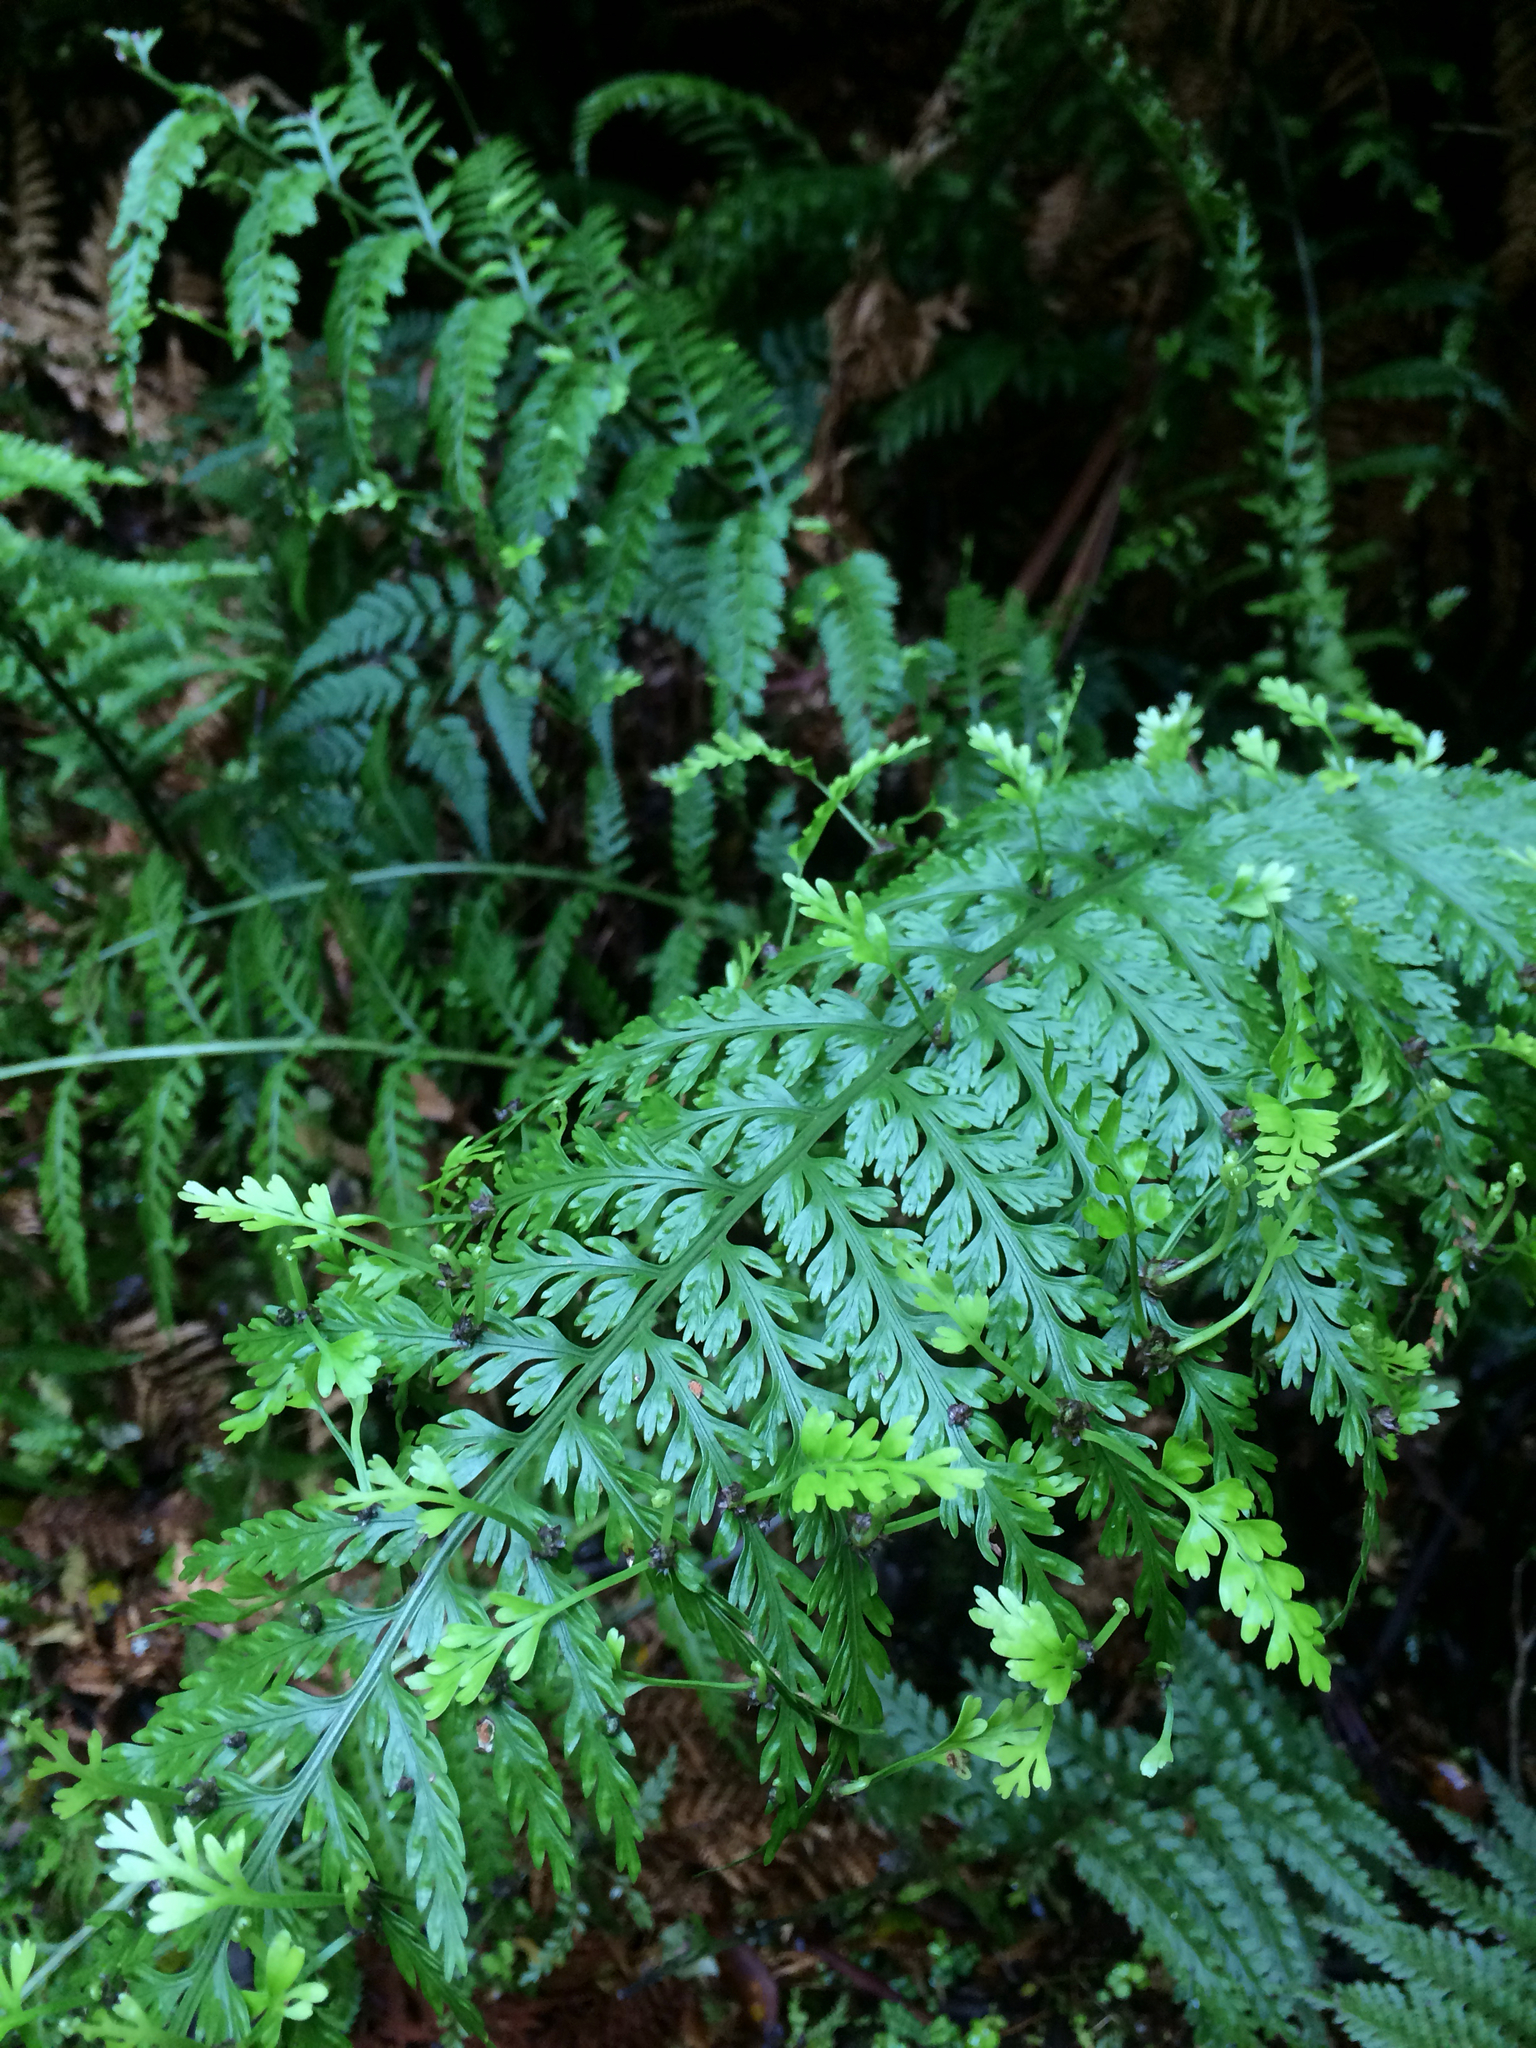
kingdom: Plantae
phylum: Tracheophyta
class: Polypodiopsida
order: Polypodiales
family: Aspleniaceae
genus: Asplenium
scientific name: Asplenium bulbiferum
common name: Mother fern
